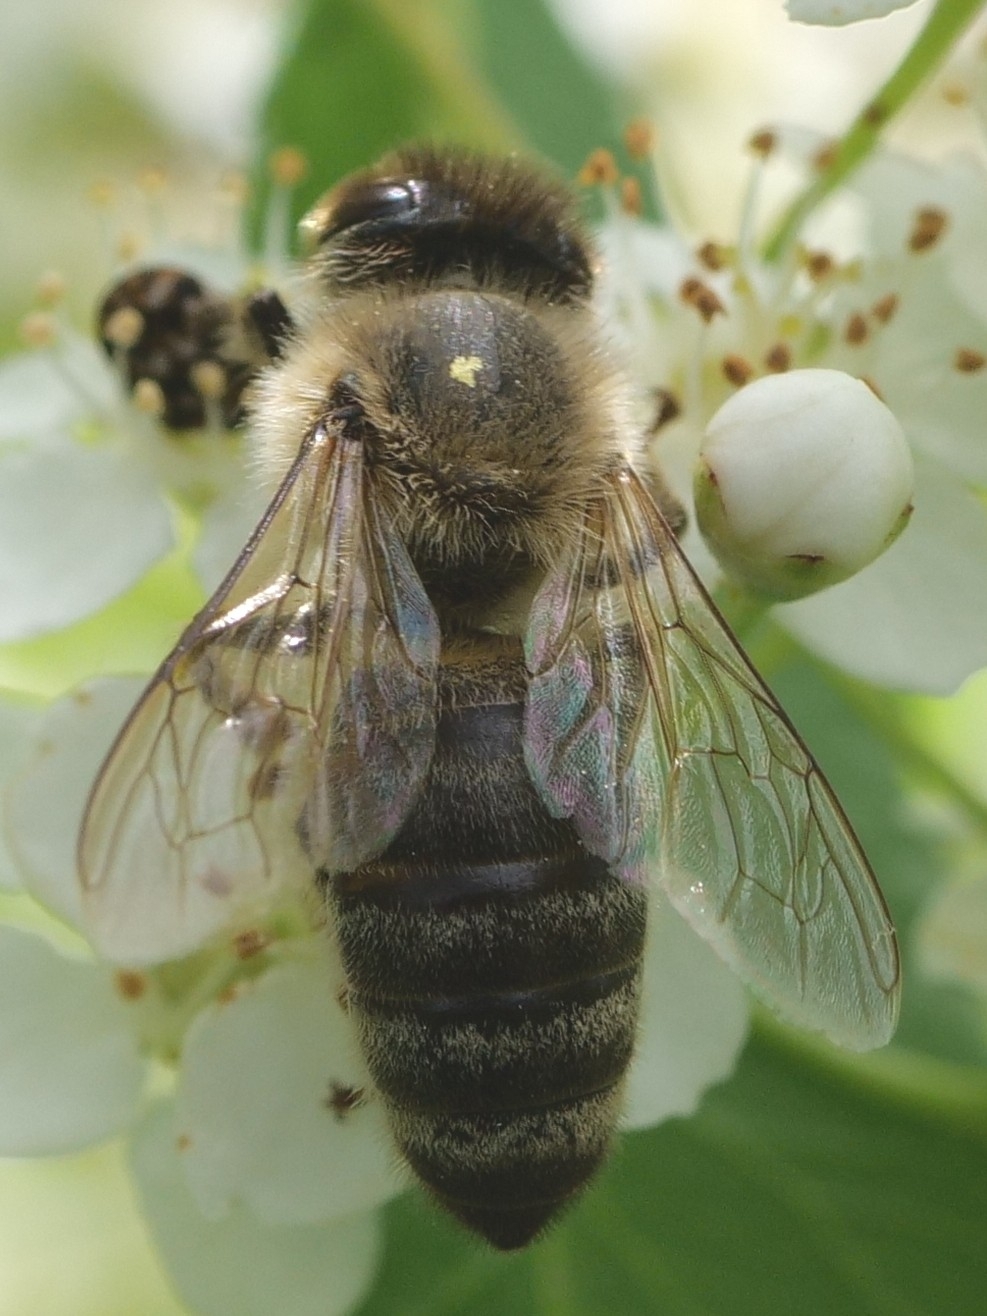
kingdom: Animalia
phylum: Arthropoda
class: Insecta
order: Hymenoptera
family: Apidae
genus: Apis
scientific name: Apis mellifera
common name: Honey bee
